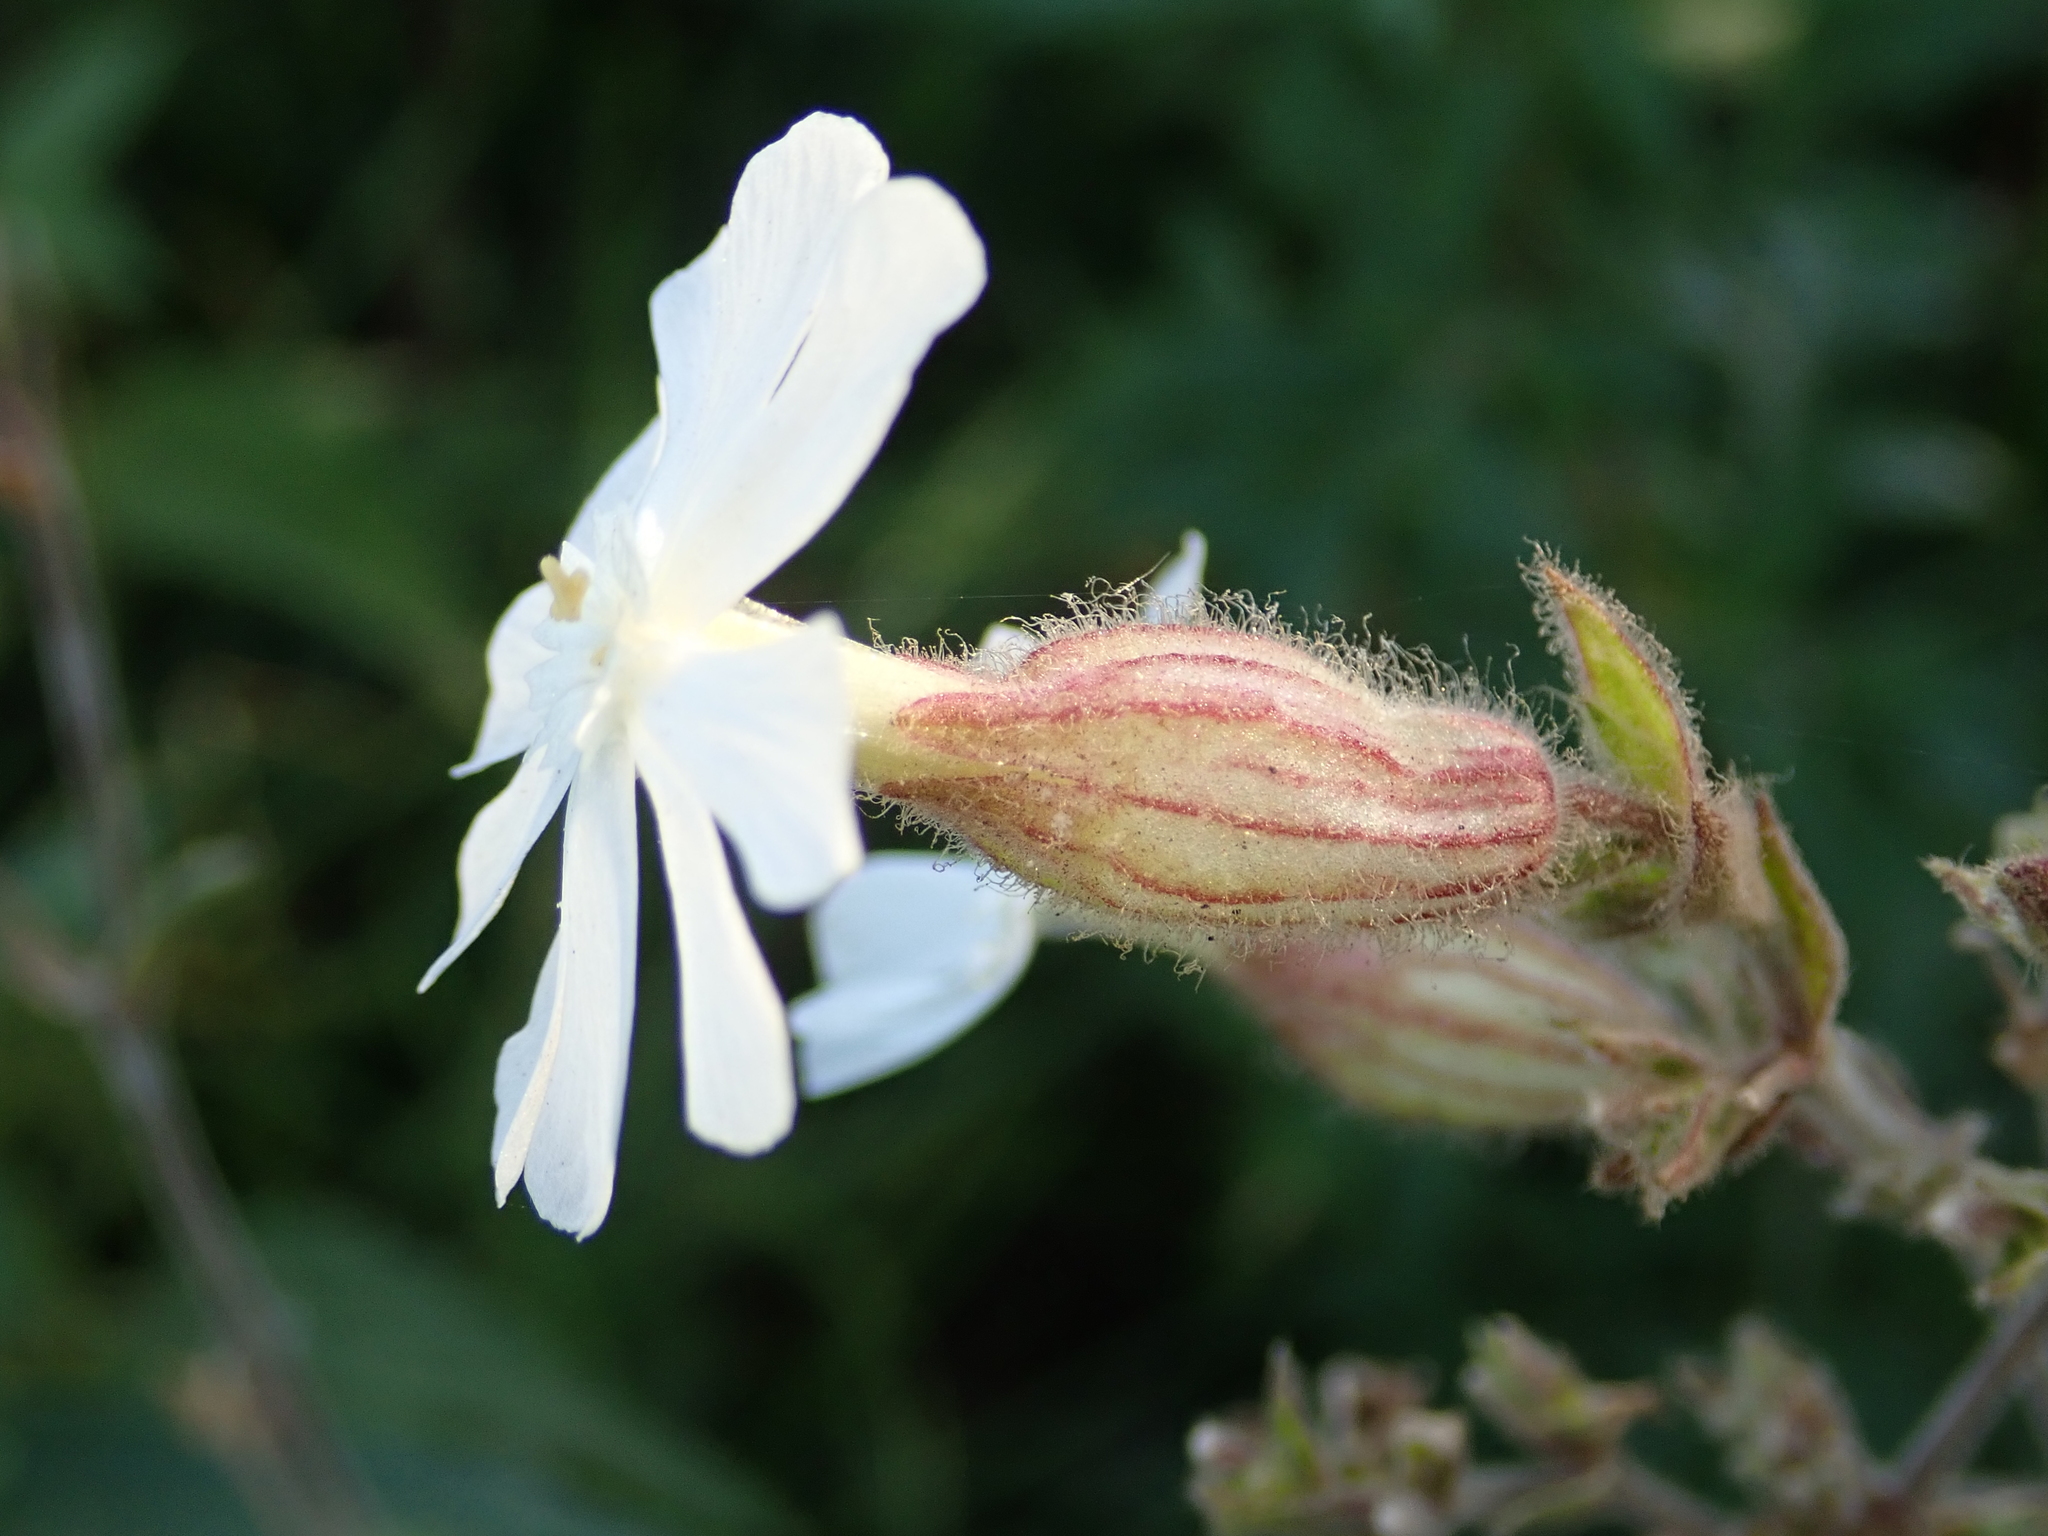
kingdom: Plantae
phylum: Tracheophyta
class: Magnoliopsida
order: Caryophyllales
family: Caryophyllaceae
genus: Silene
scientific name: Silene latifolia
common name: White campion
